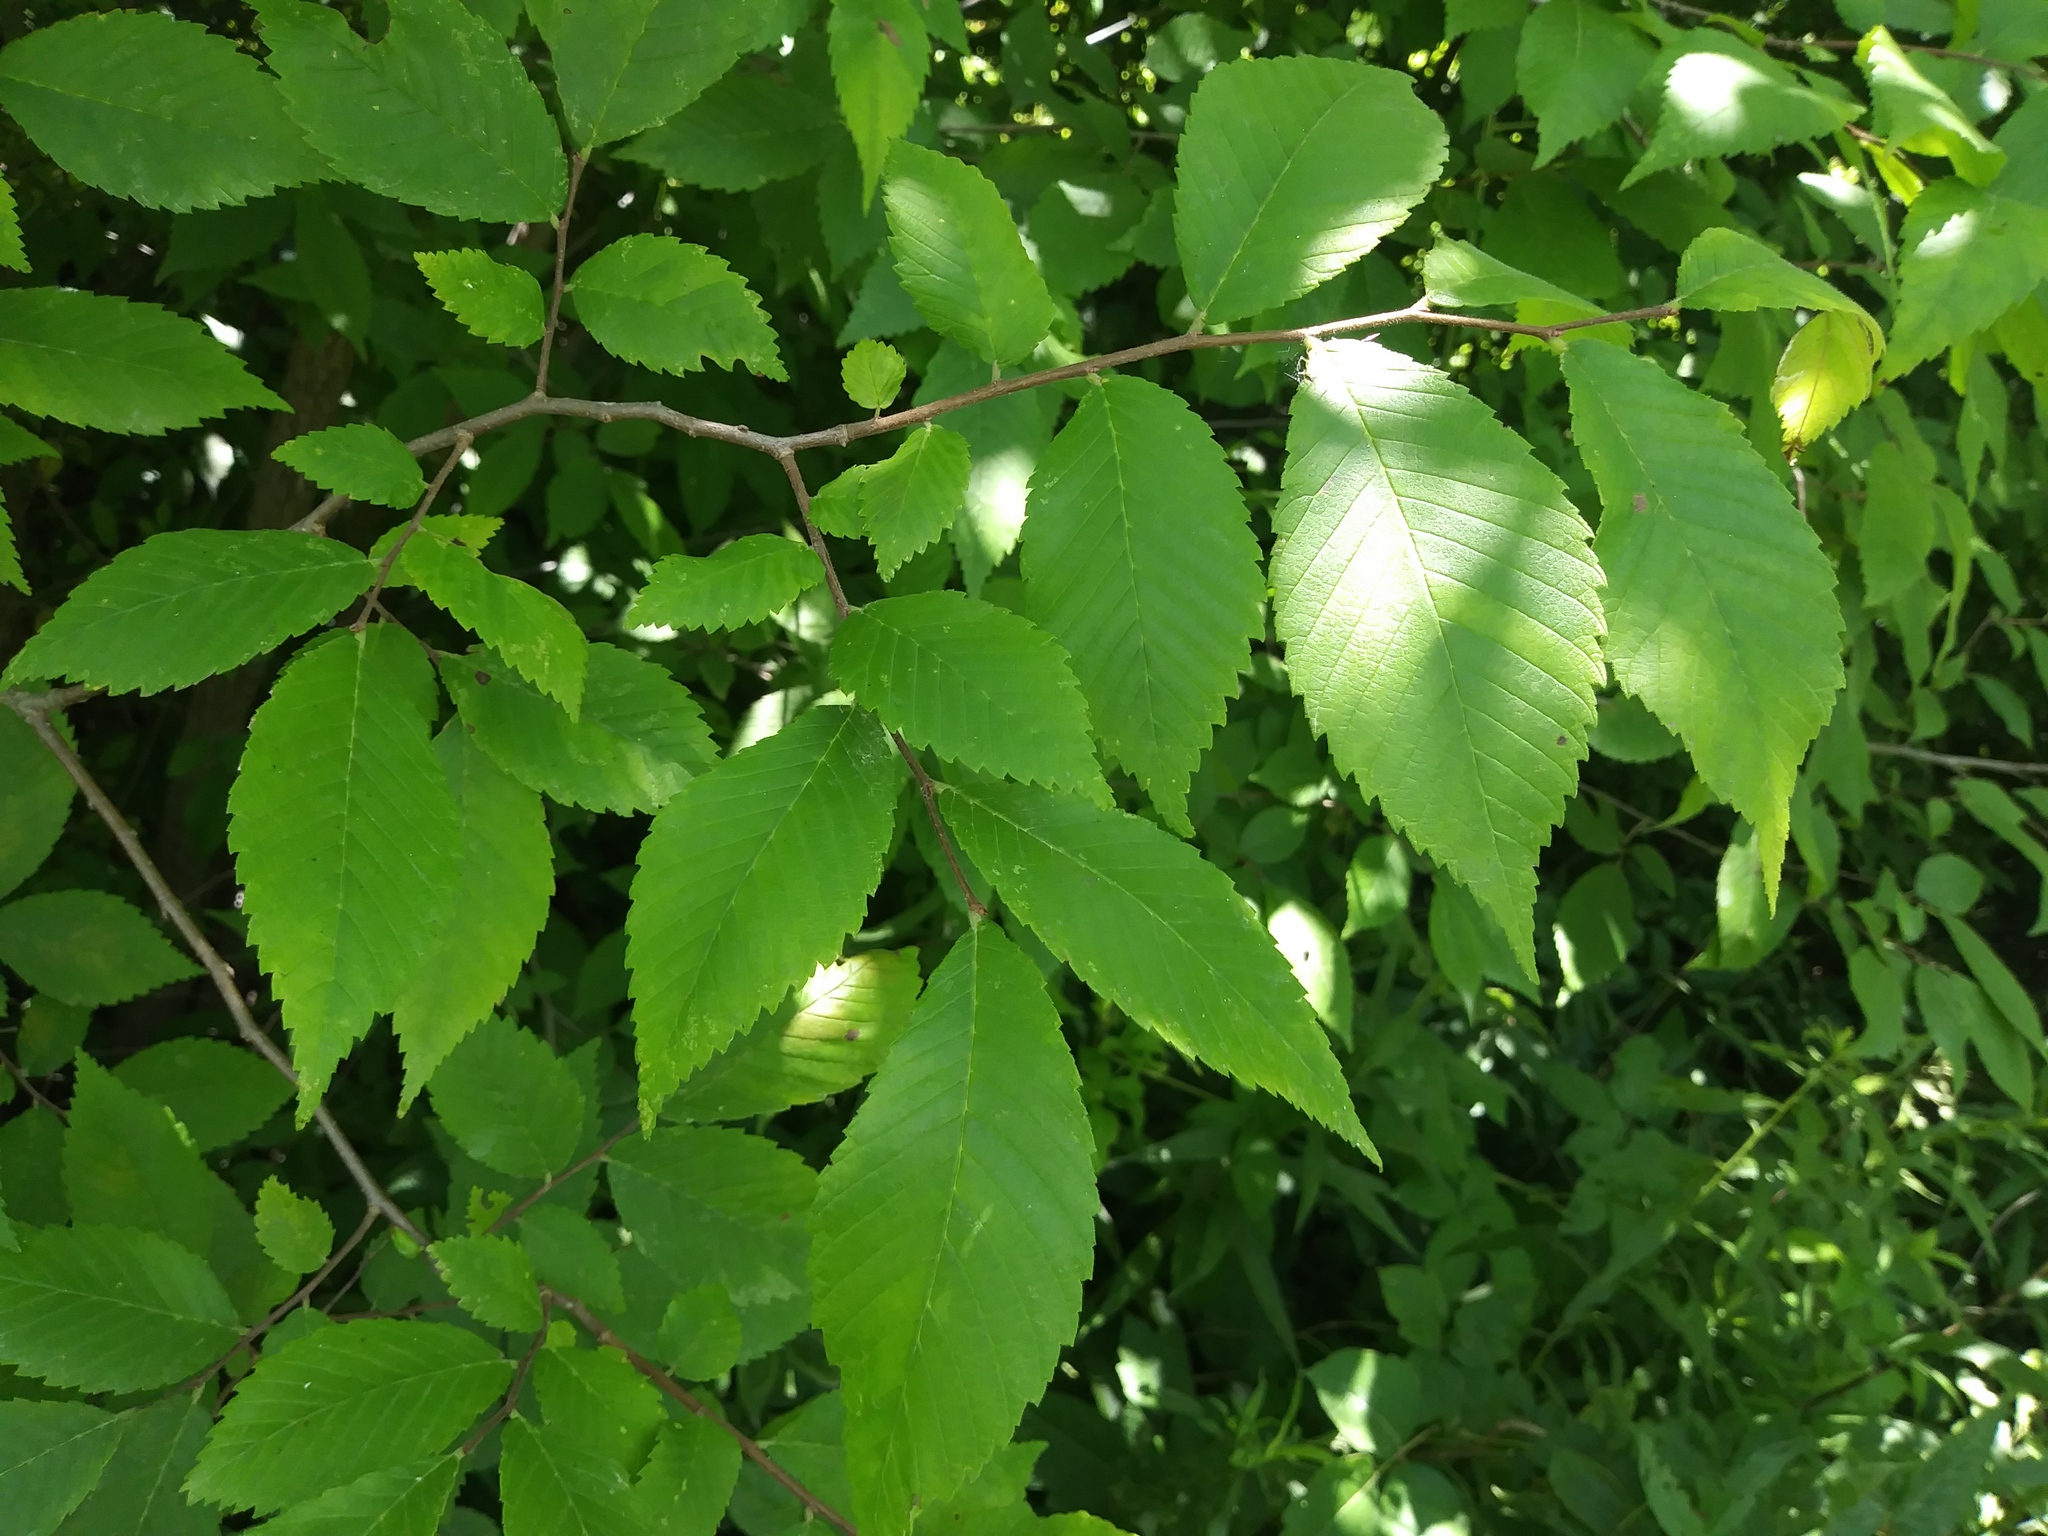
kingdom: Plantae
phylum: Tracheophyta
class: Magnoliopsida
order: Rosales
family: Ulmaceae
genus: Ulmus
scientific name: Ulmus americana
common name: American elm
